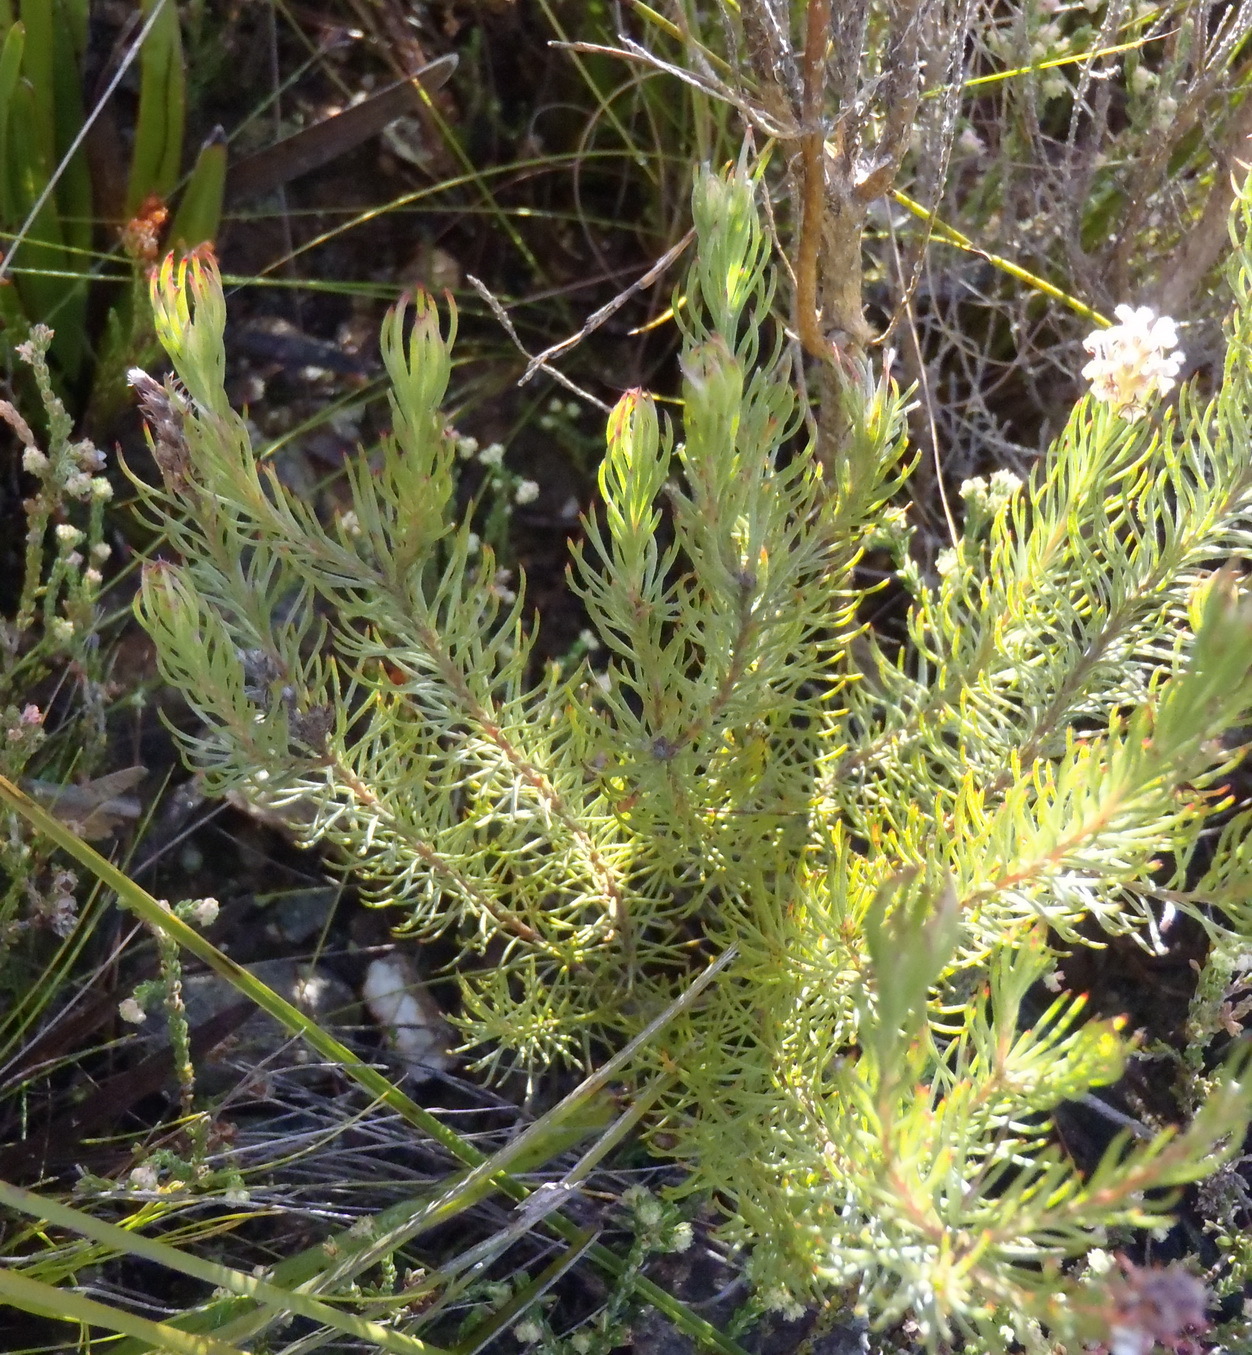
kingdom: Plantae
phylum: Tracheophyta
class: Magnoliopsida
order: Proteales
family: Proteaceae
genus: Spatalla
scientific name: Spatalla barbigera
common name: Fine-leaf spoon
